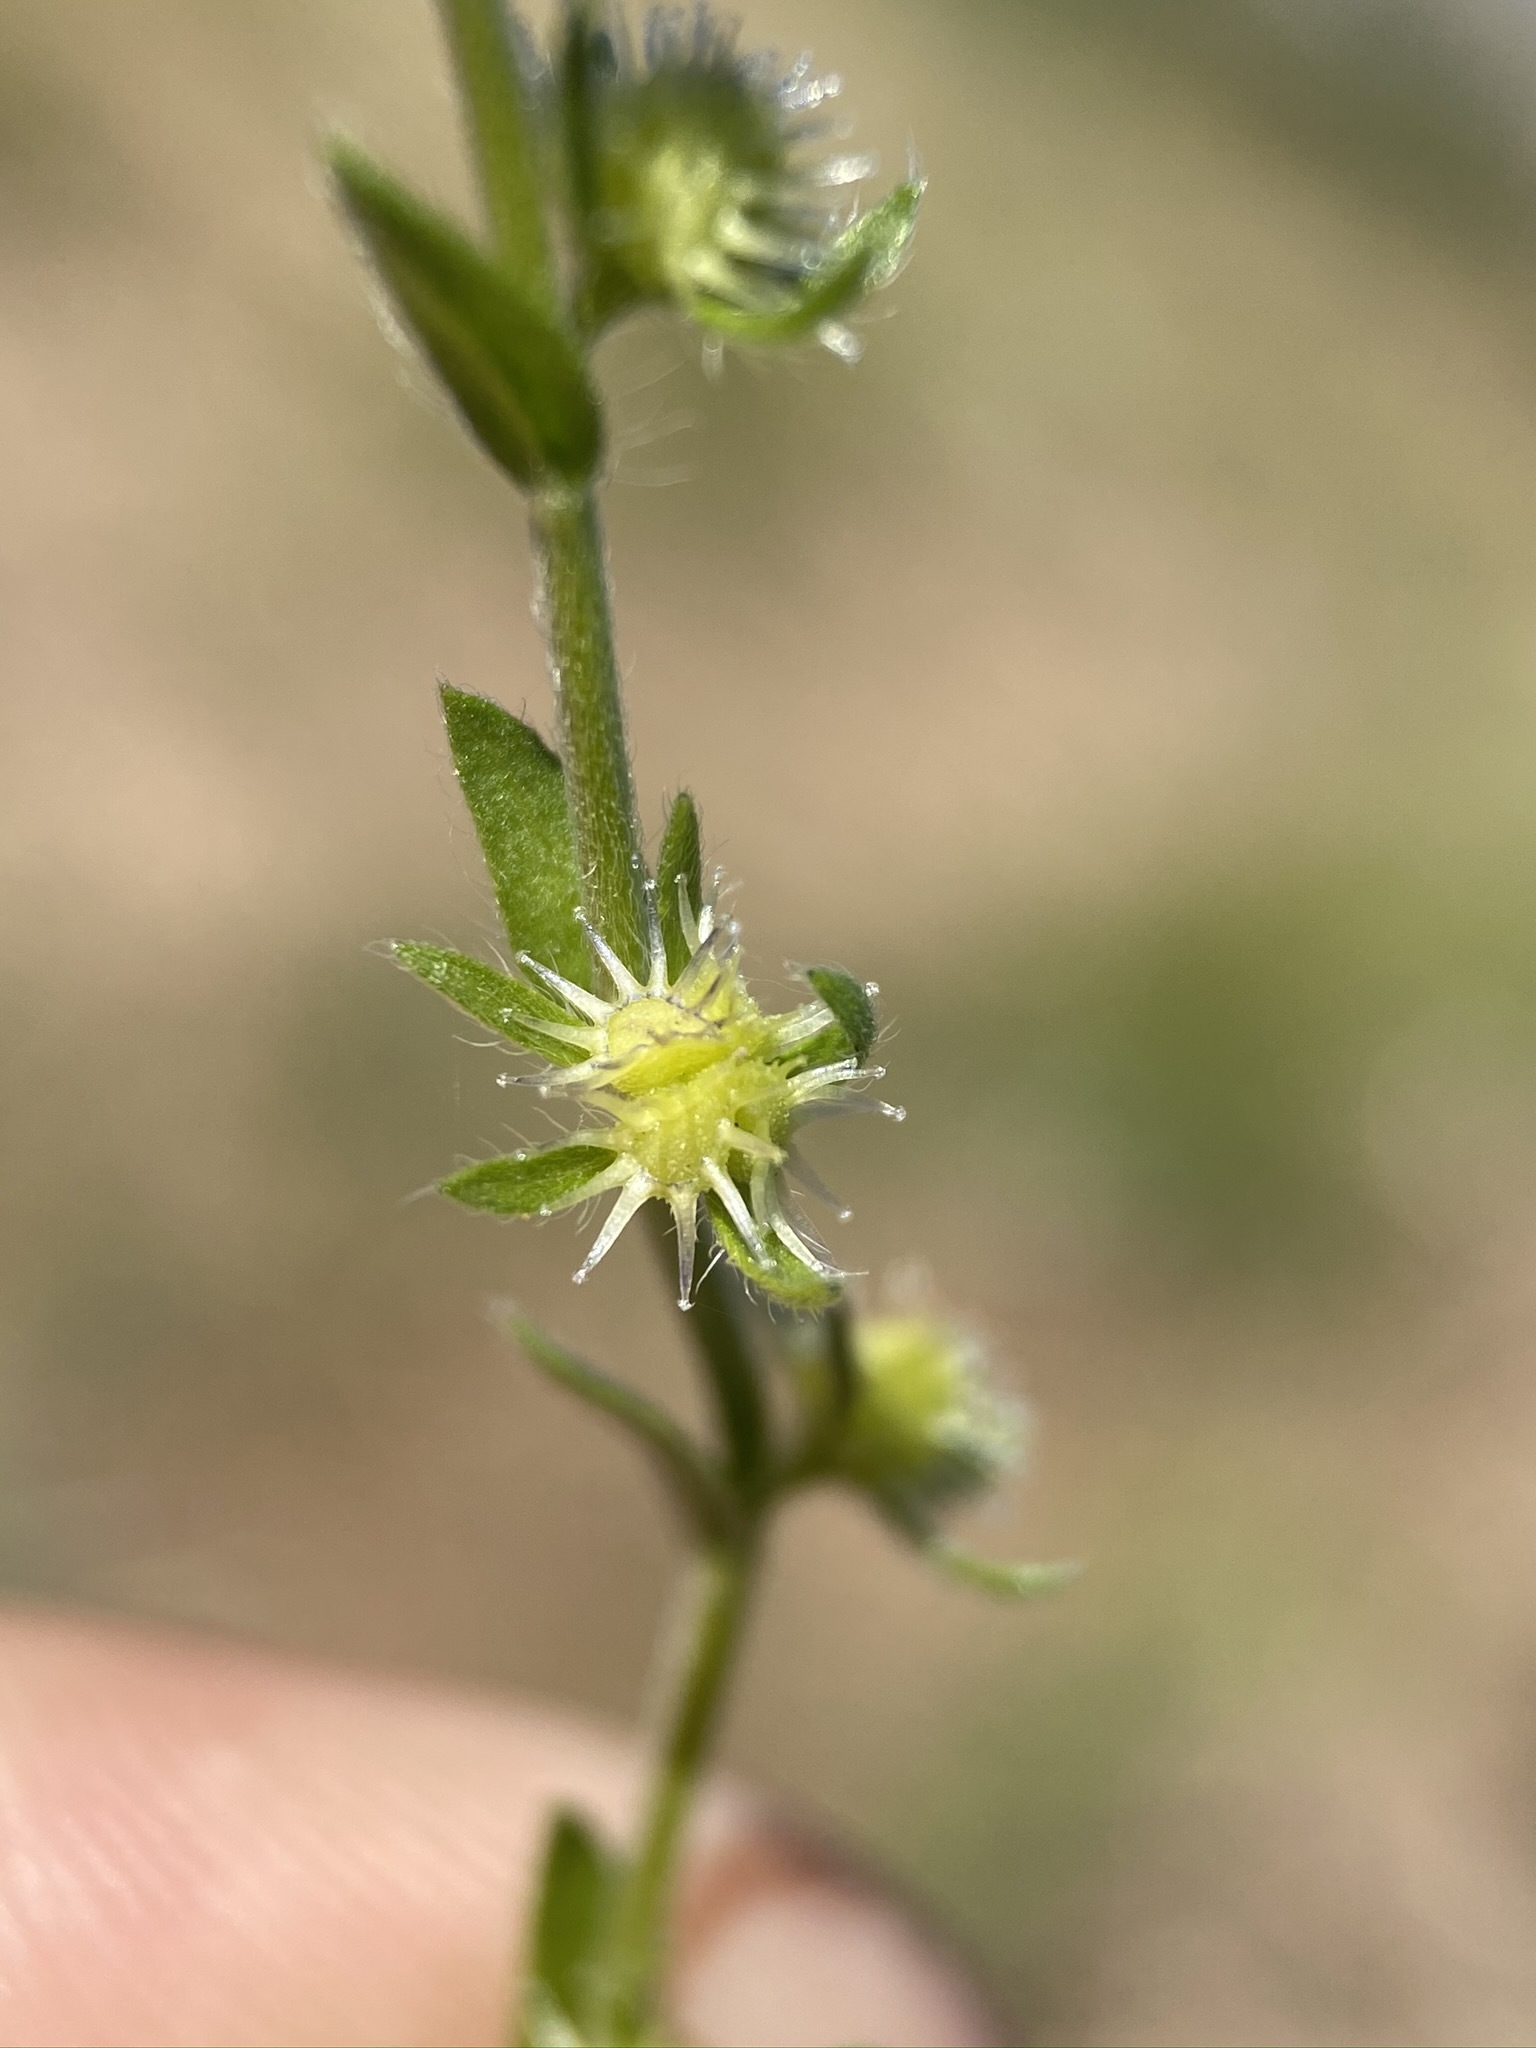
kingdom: Plantae
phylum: Tracheophyta
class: Magnoliopsida
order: Boraginales
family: Boraginaceae
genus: Lappula
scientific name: Lappula occidentalis
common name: Western stickseed
